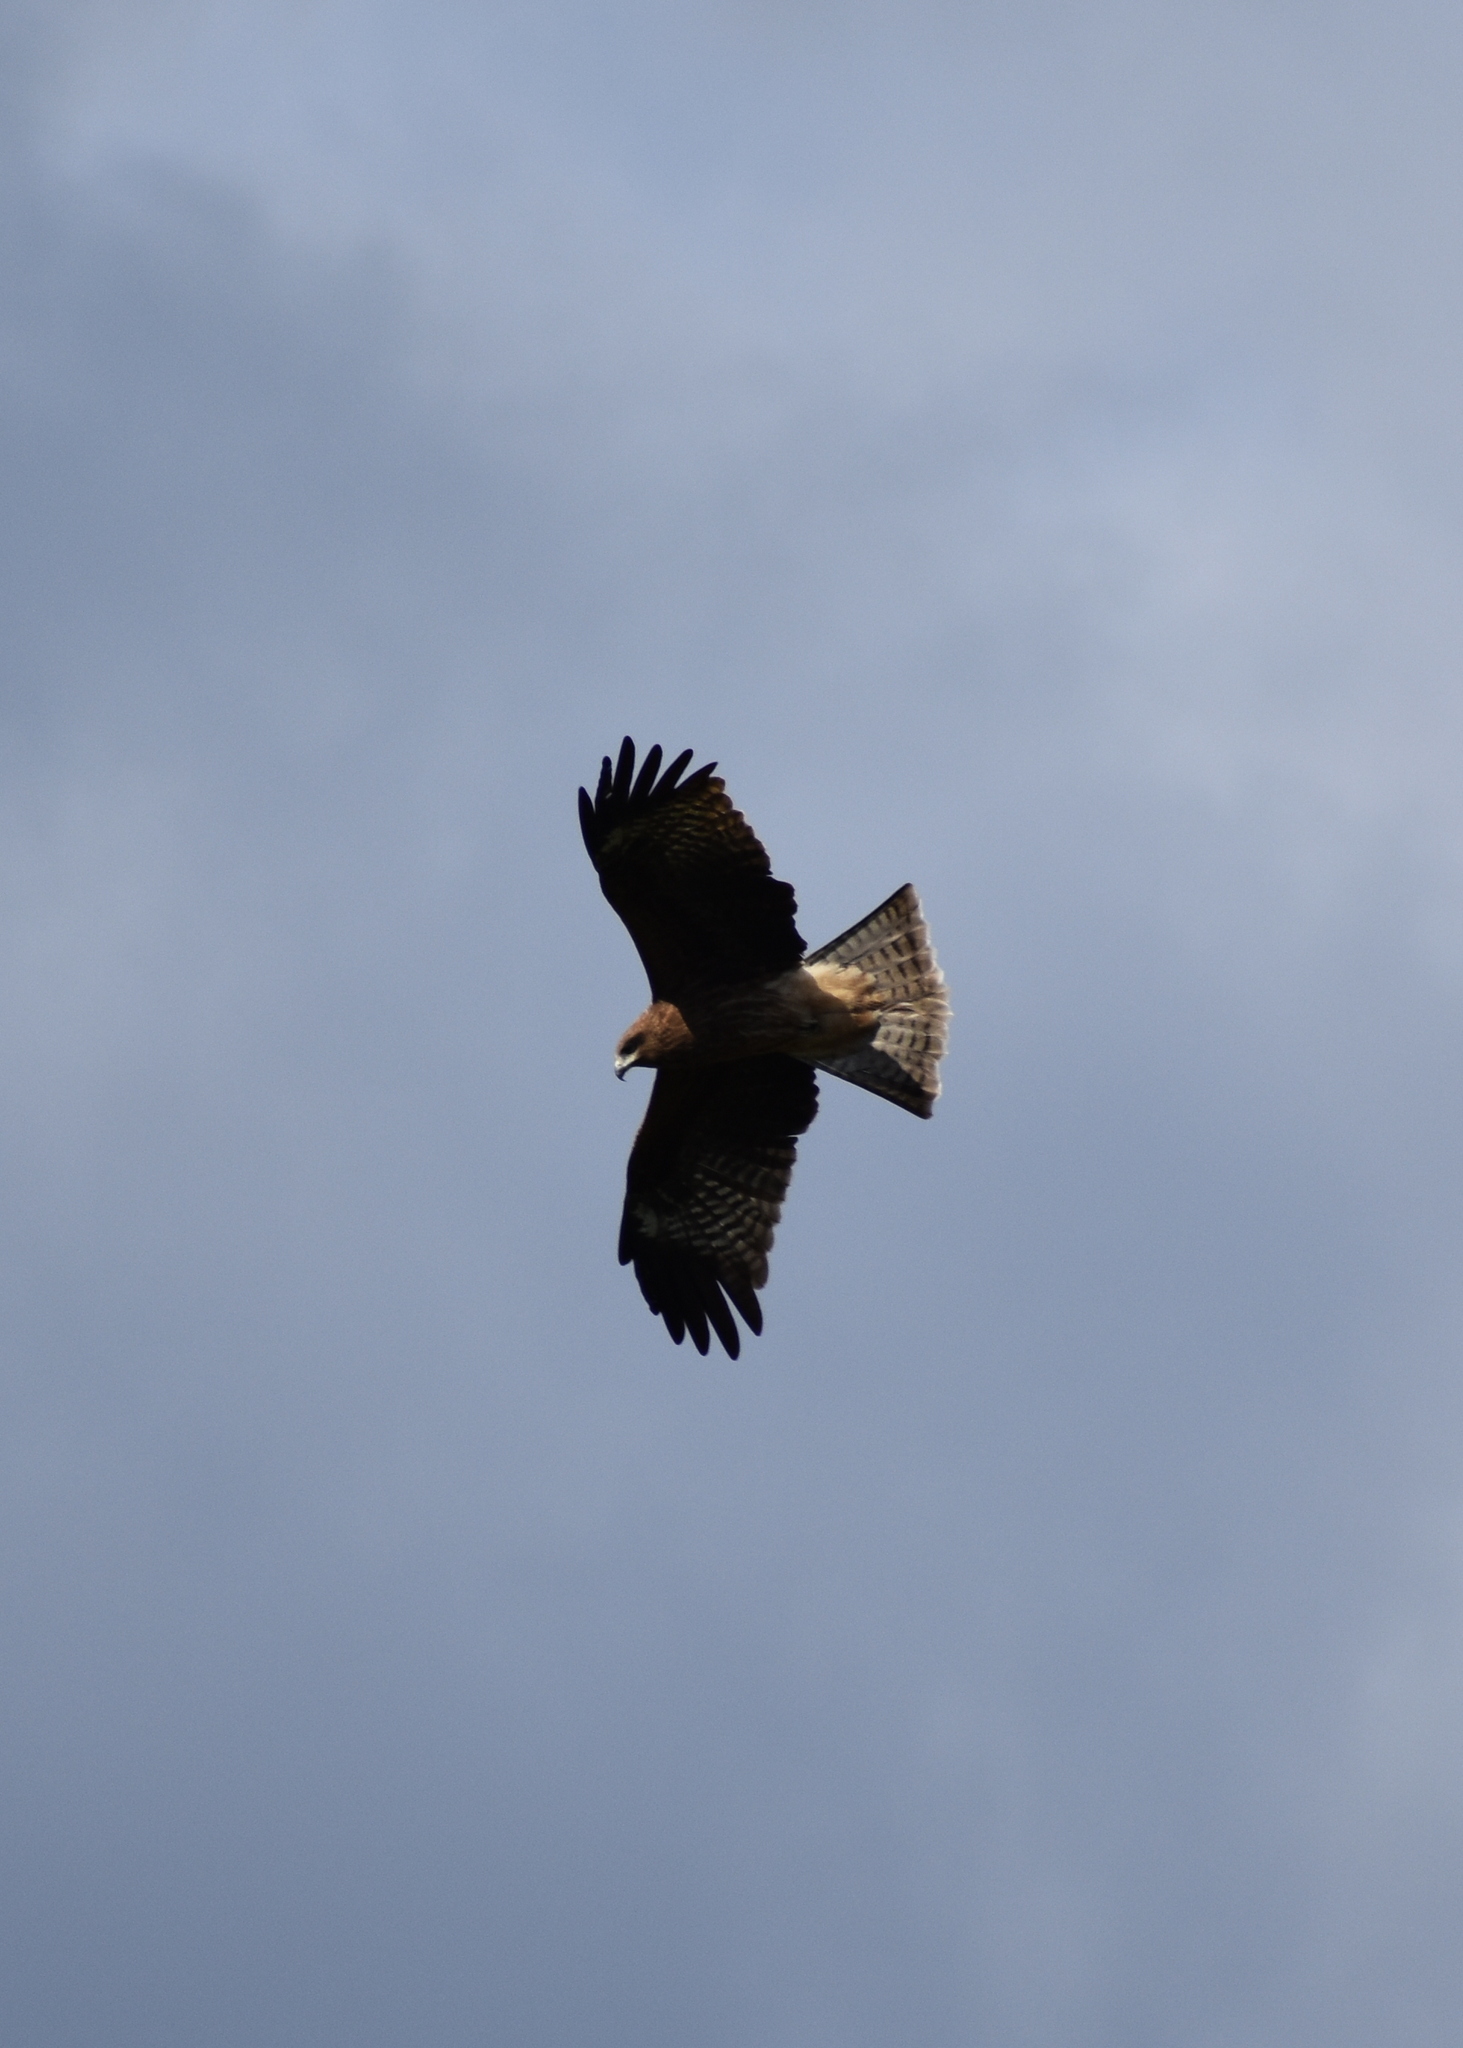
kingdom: Animalia
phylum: Chordata
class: Aves
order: Accipitriformes
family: Accipitridae
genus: Milvus
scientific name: Milvus migrans
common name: Black kite
